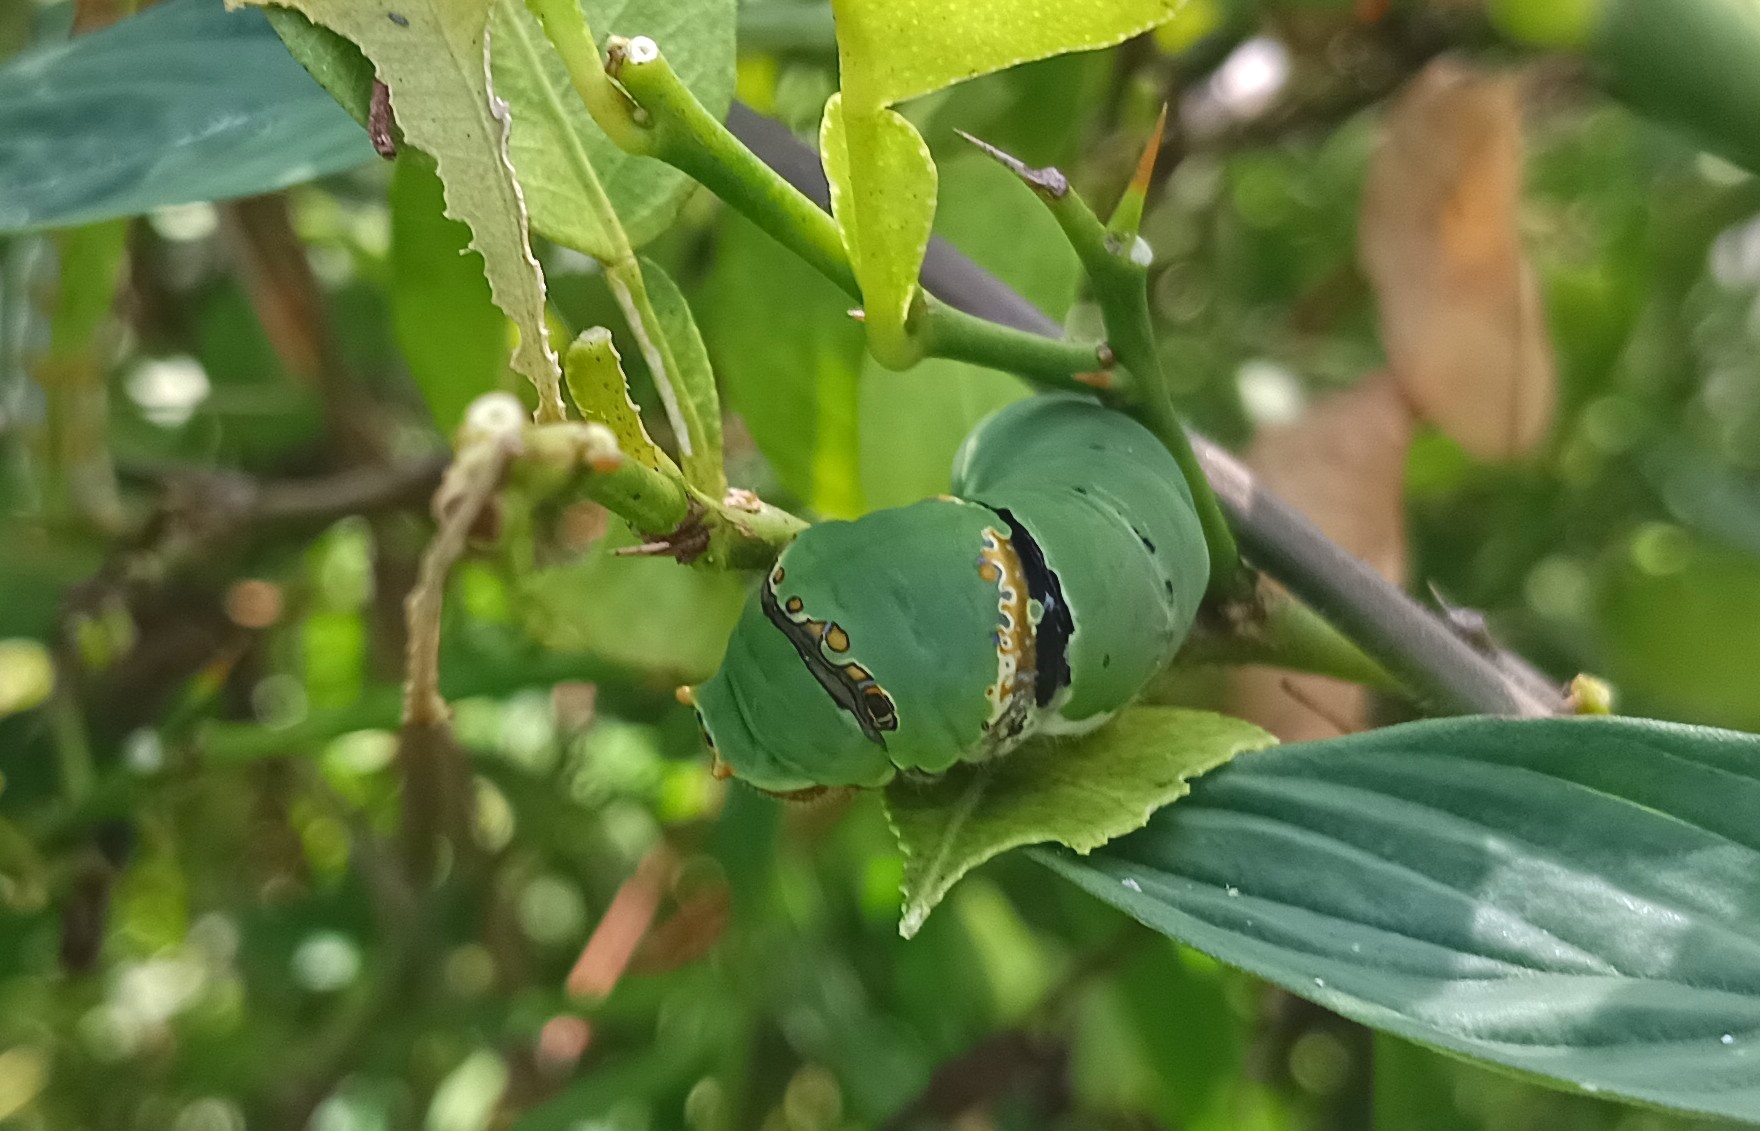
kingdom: Animalia
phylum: Arthropoda
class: Insecta
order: Lepidoptera
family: Papilionidae
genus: Papilio
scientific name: Papilio demoleus
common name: Lime butterfly
